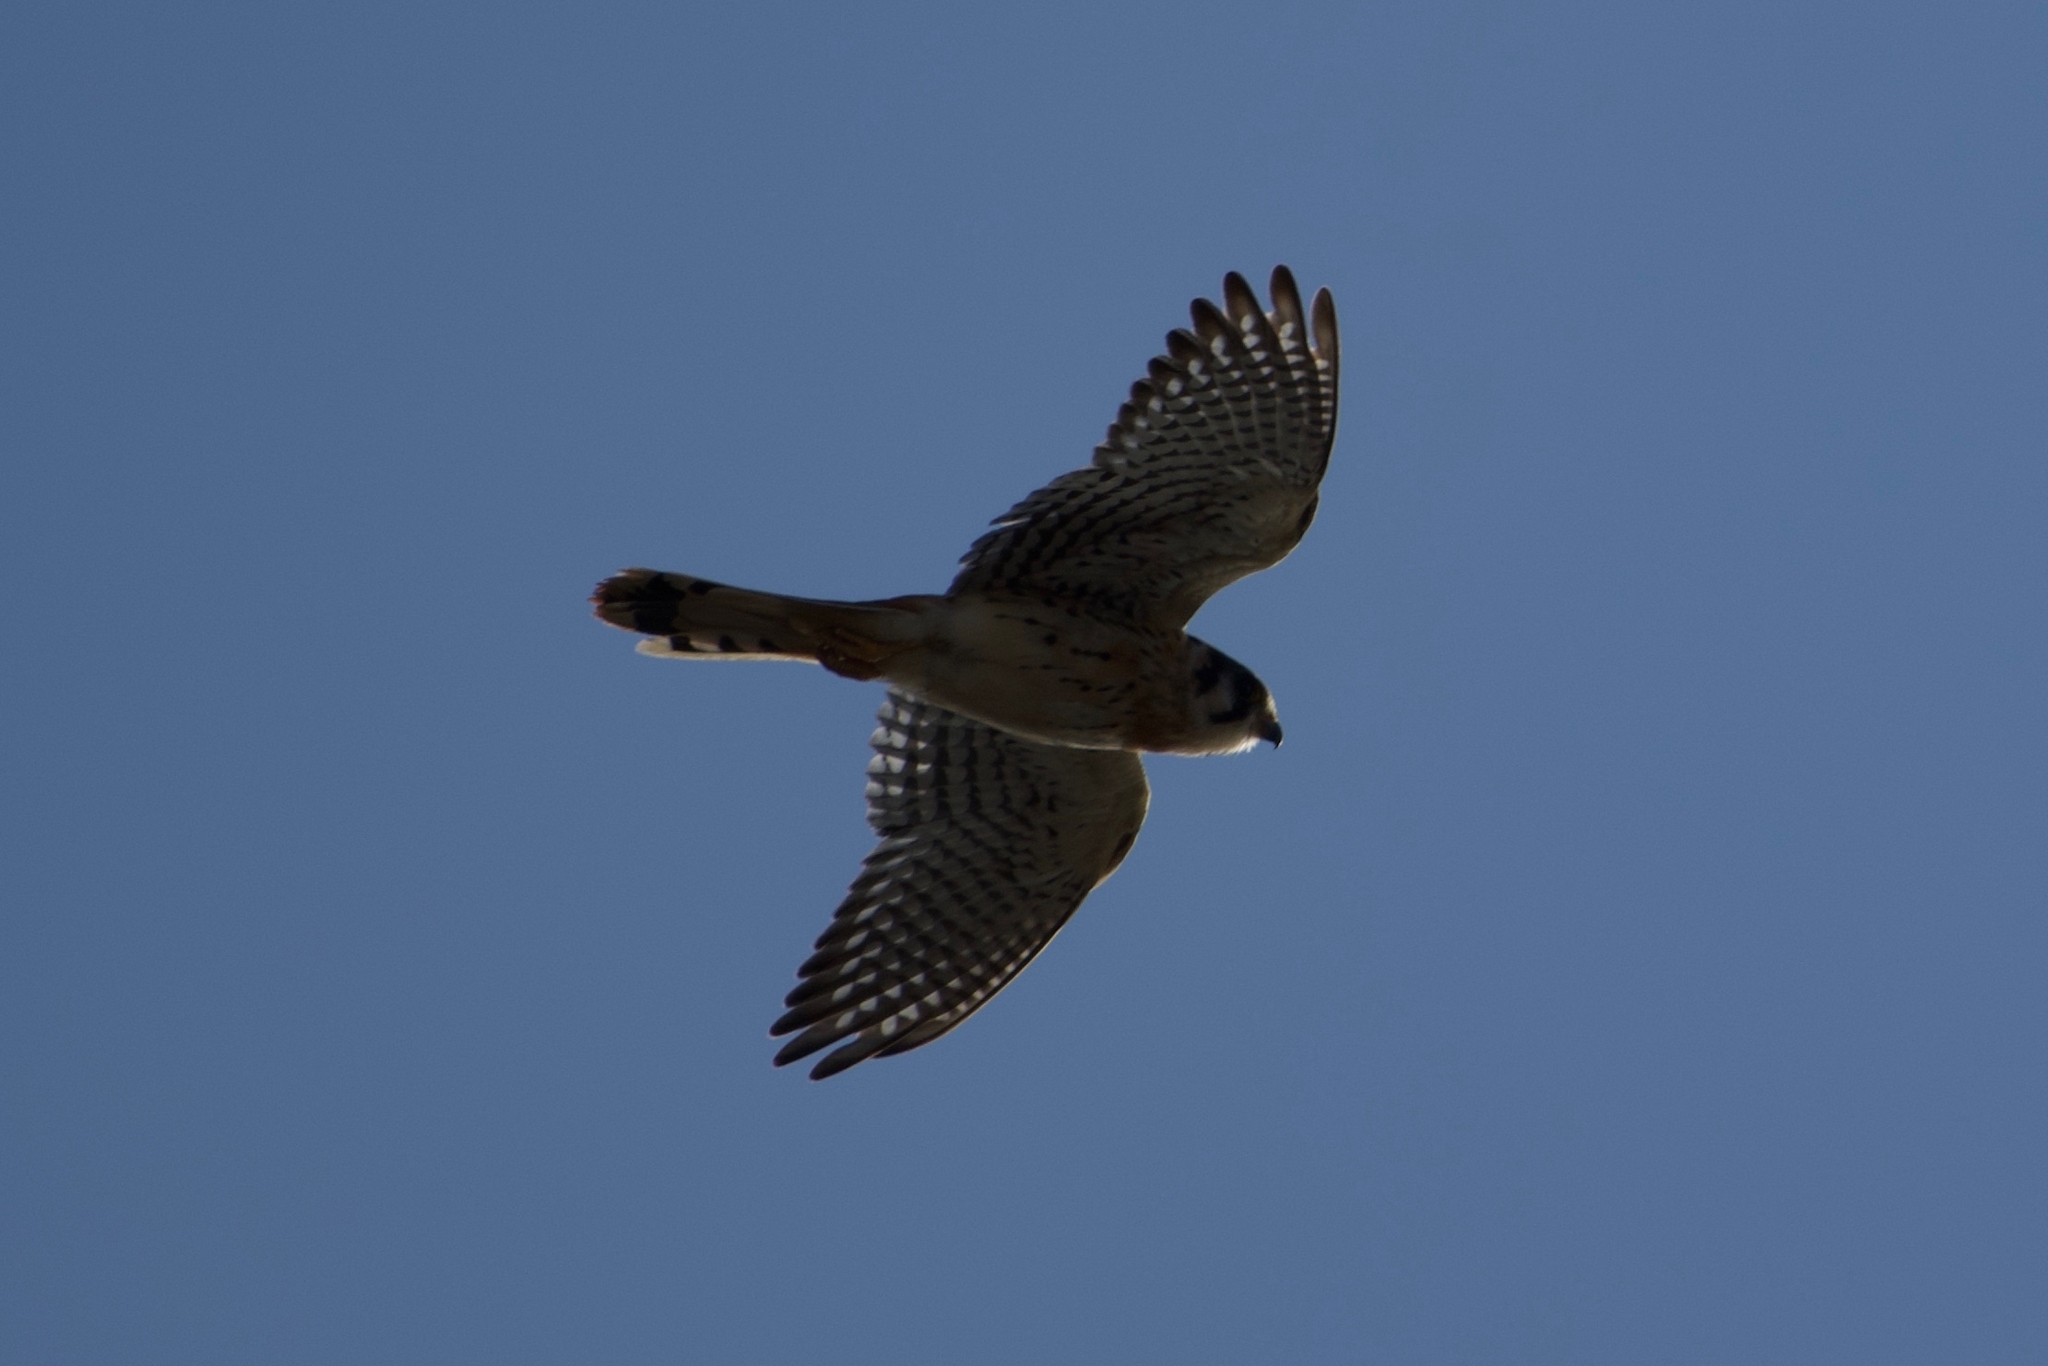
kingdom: Animalia
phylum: Chordata
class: Aves
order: Falconiformes
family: Falconidae
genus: Falco
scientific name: Falco sparverius
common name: American kestrel
